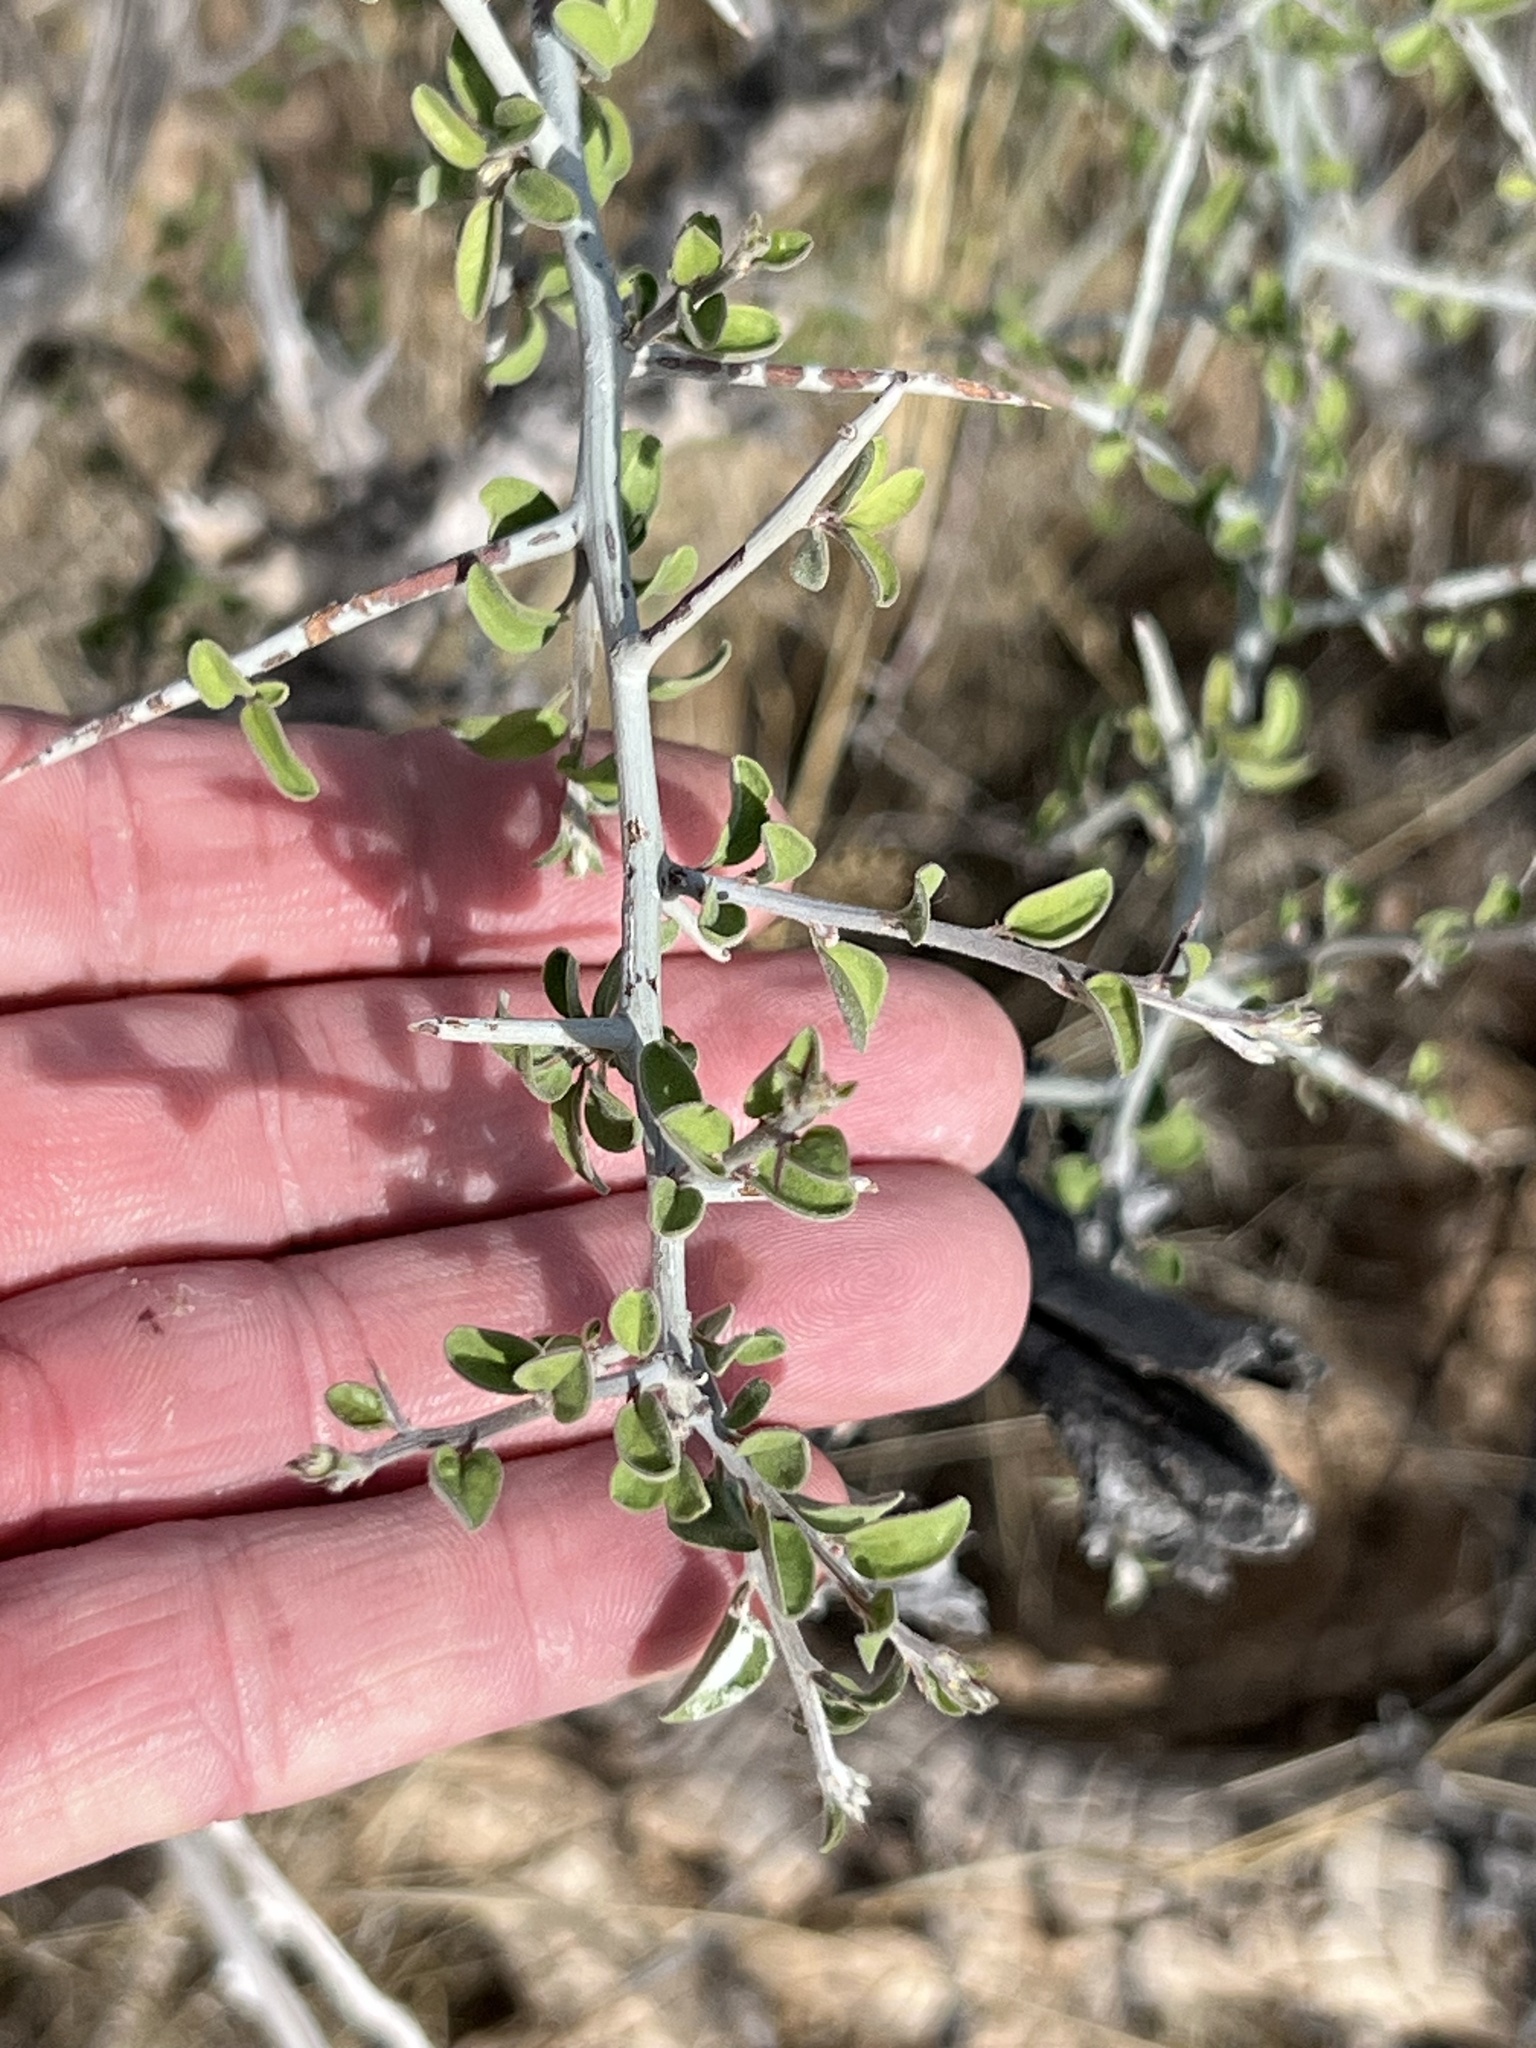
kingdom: Plantae
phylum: Tracheophyta
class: Magnoliopsida
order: Rosales
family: Rhamnaceae
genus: Sarcomphalus
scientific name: Sarcomphalus obtusifolius
